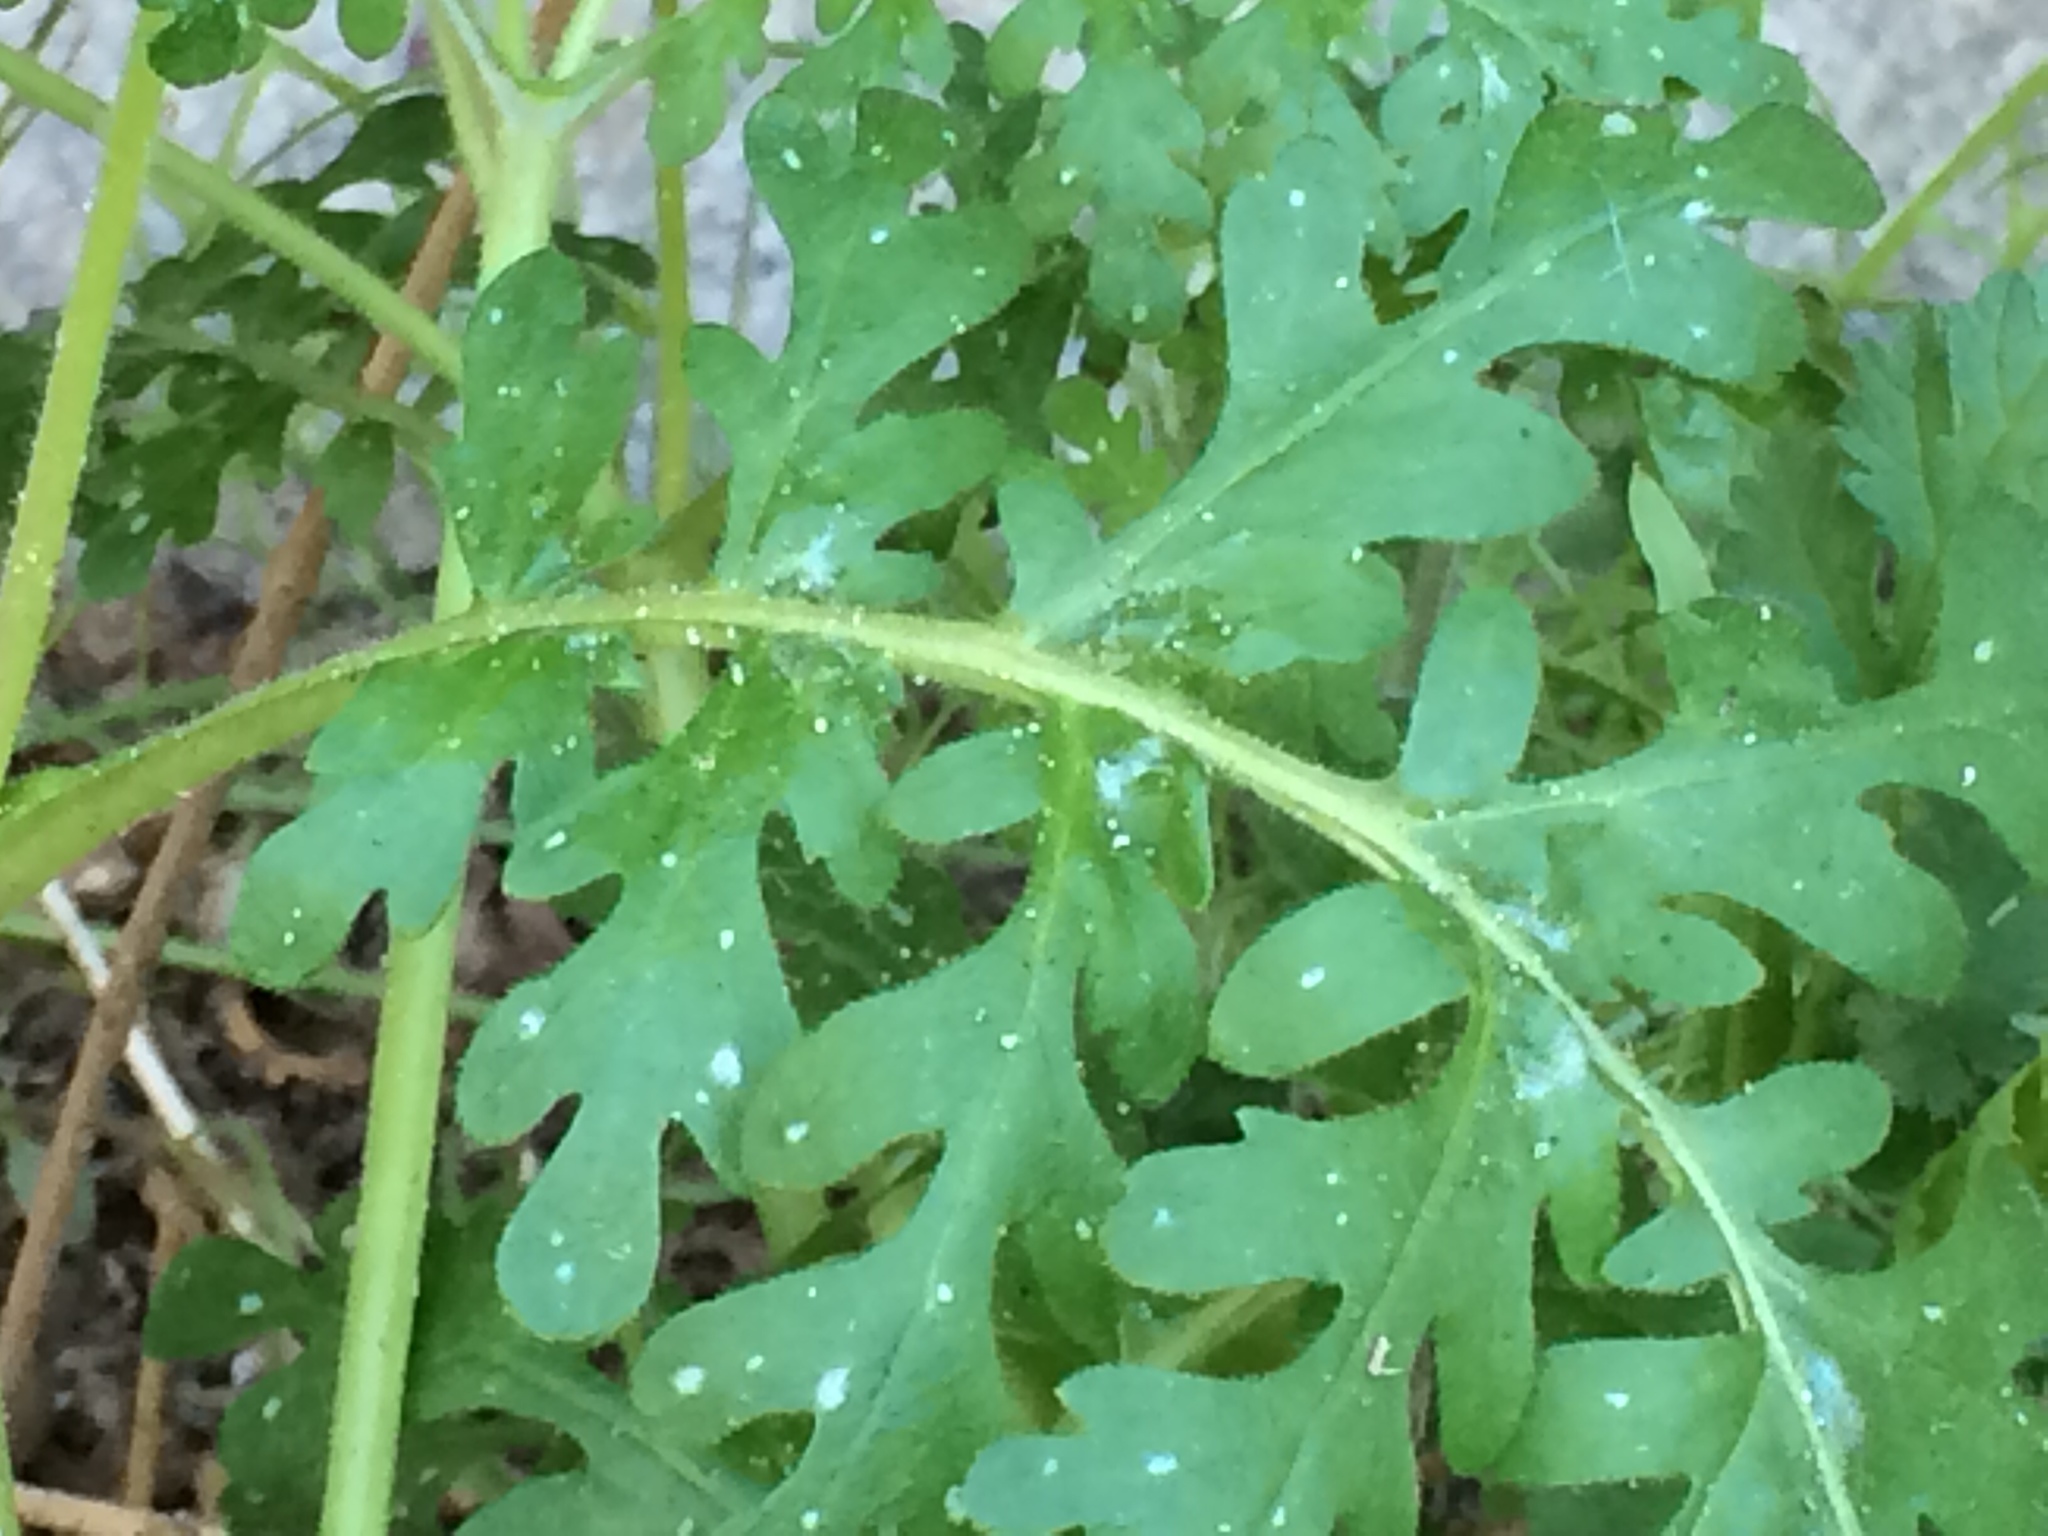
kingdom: Plantae
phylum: Tracheophyta
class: Magnoliopsida
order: Boraginales
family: Hydrophyllaceae
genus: Eucrypta
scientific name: Eucrypta chrysanthemifolia
